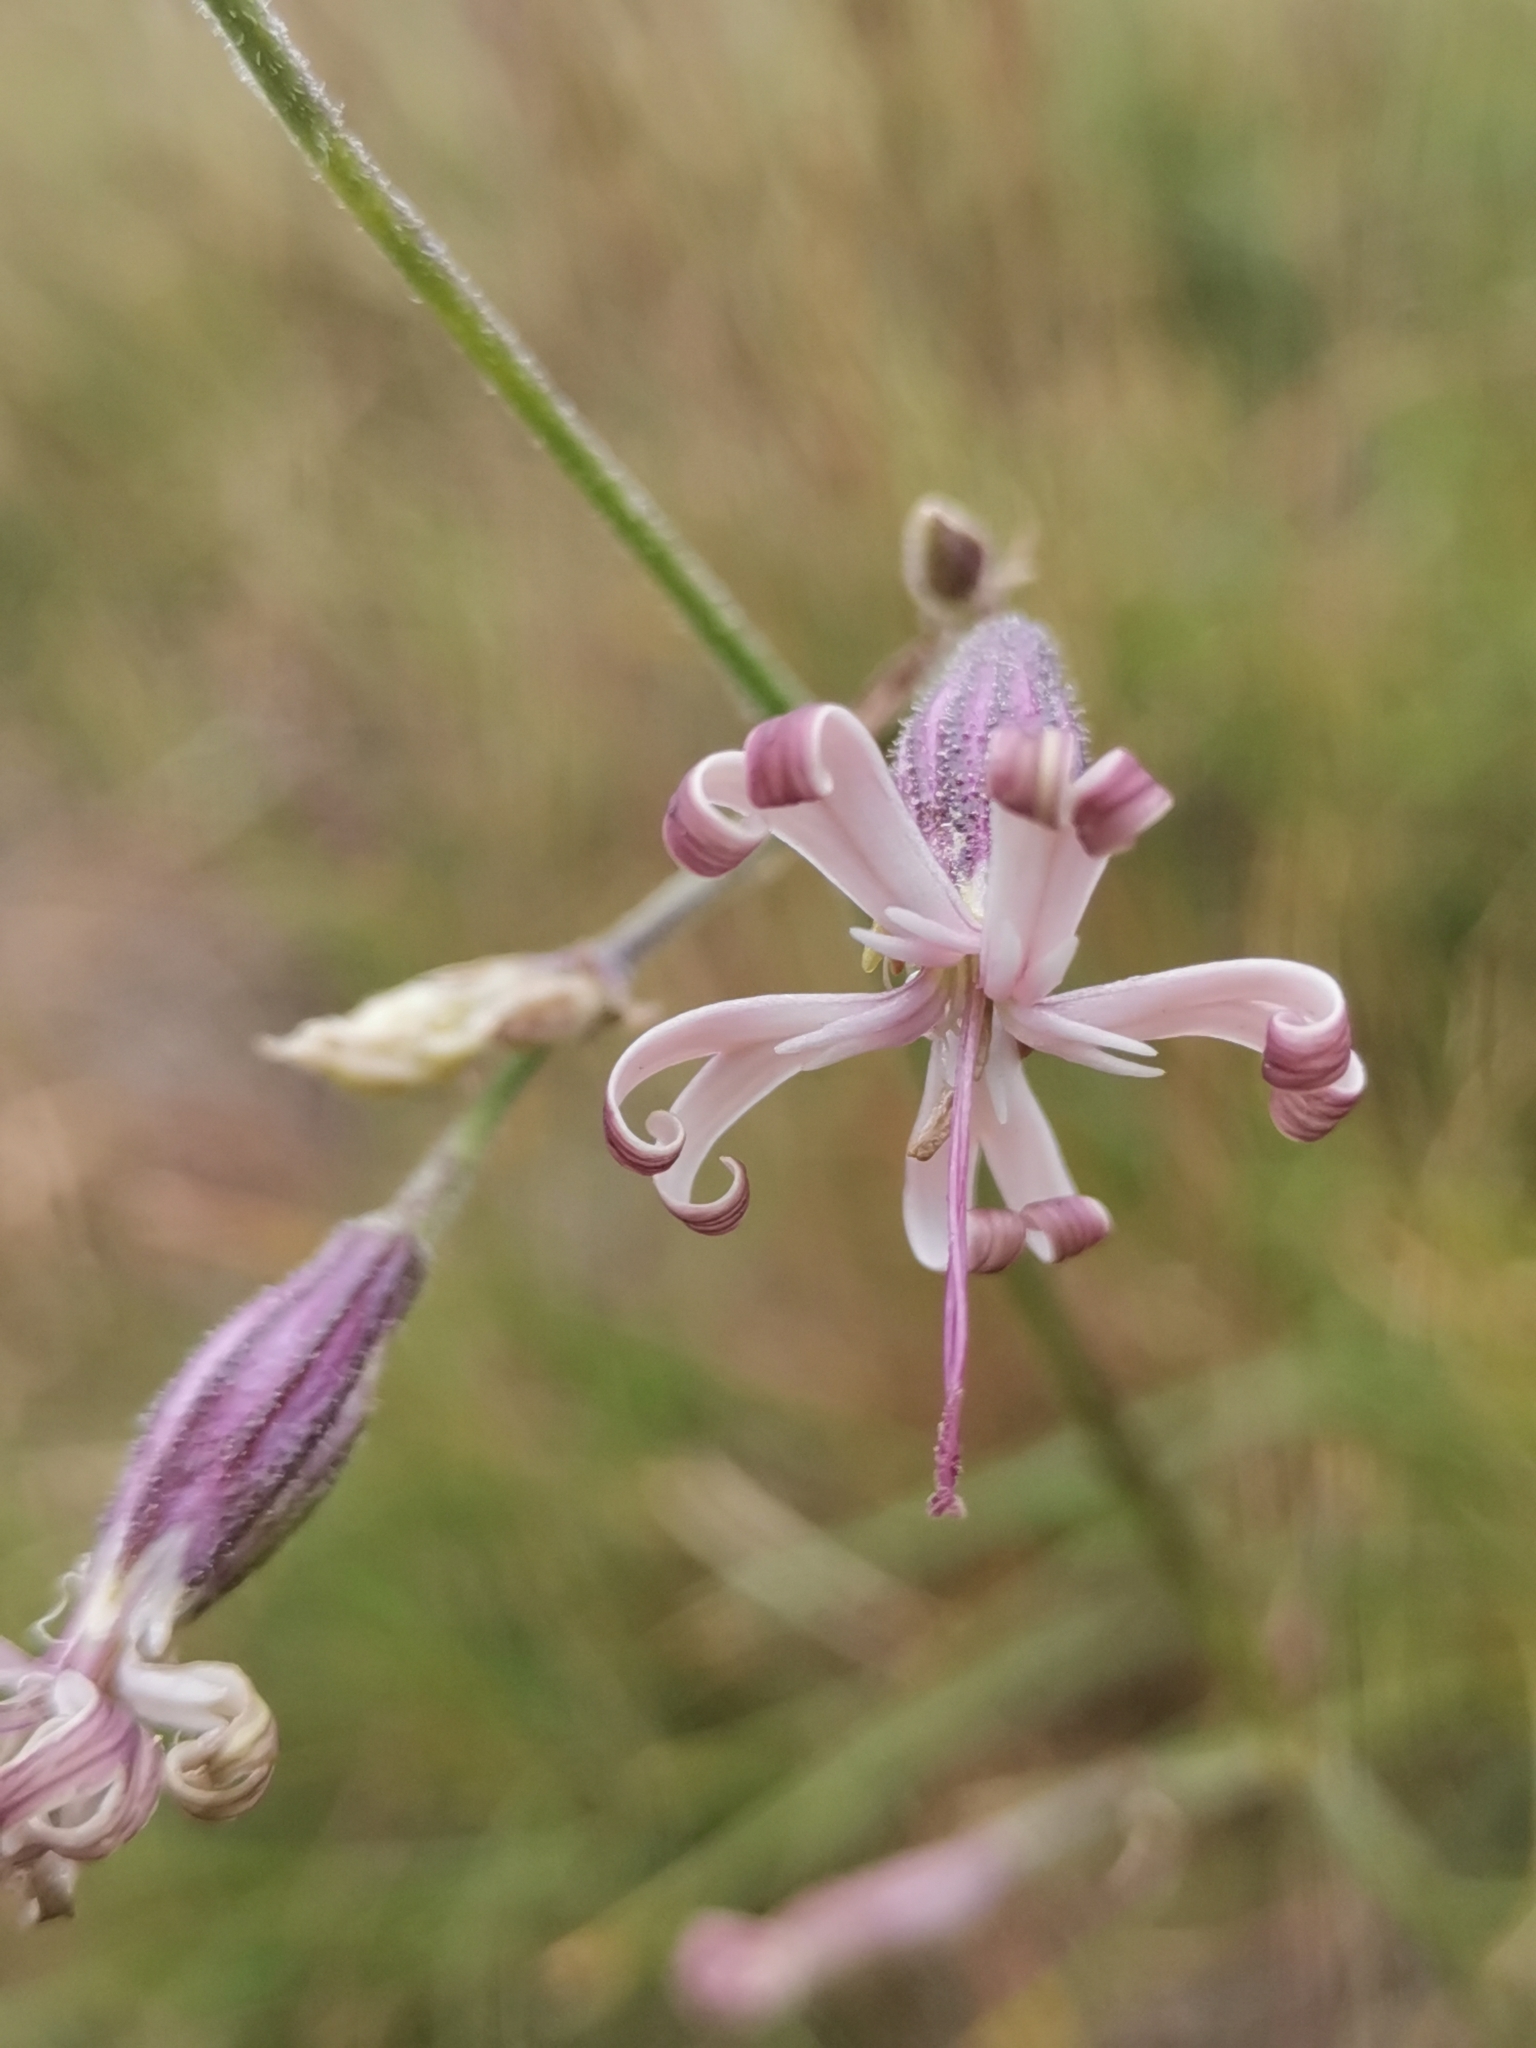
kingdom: Plantae
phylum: Tracheophyta
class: Magnoliopsida
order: Caryophyllales
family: Caryophyllaceae
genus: Silene
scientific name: Silene nutans
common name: Nottingham catchfly
